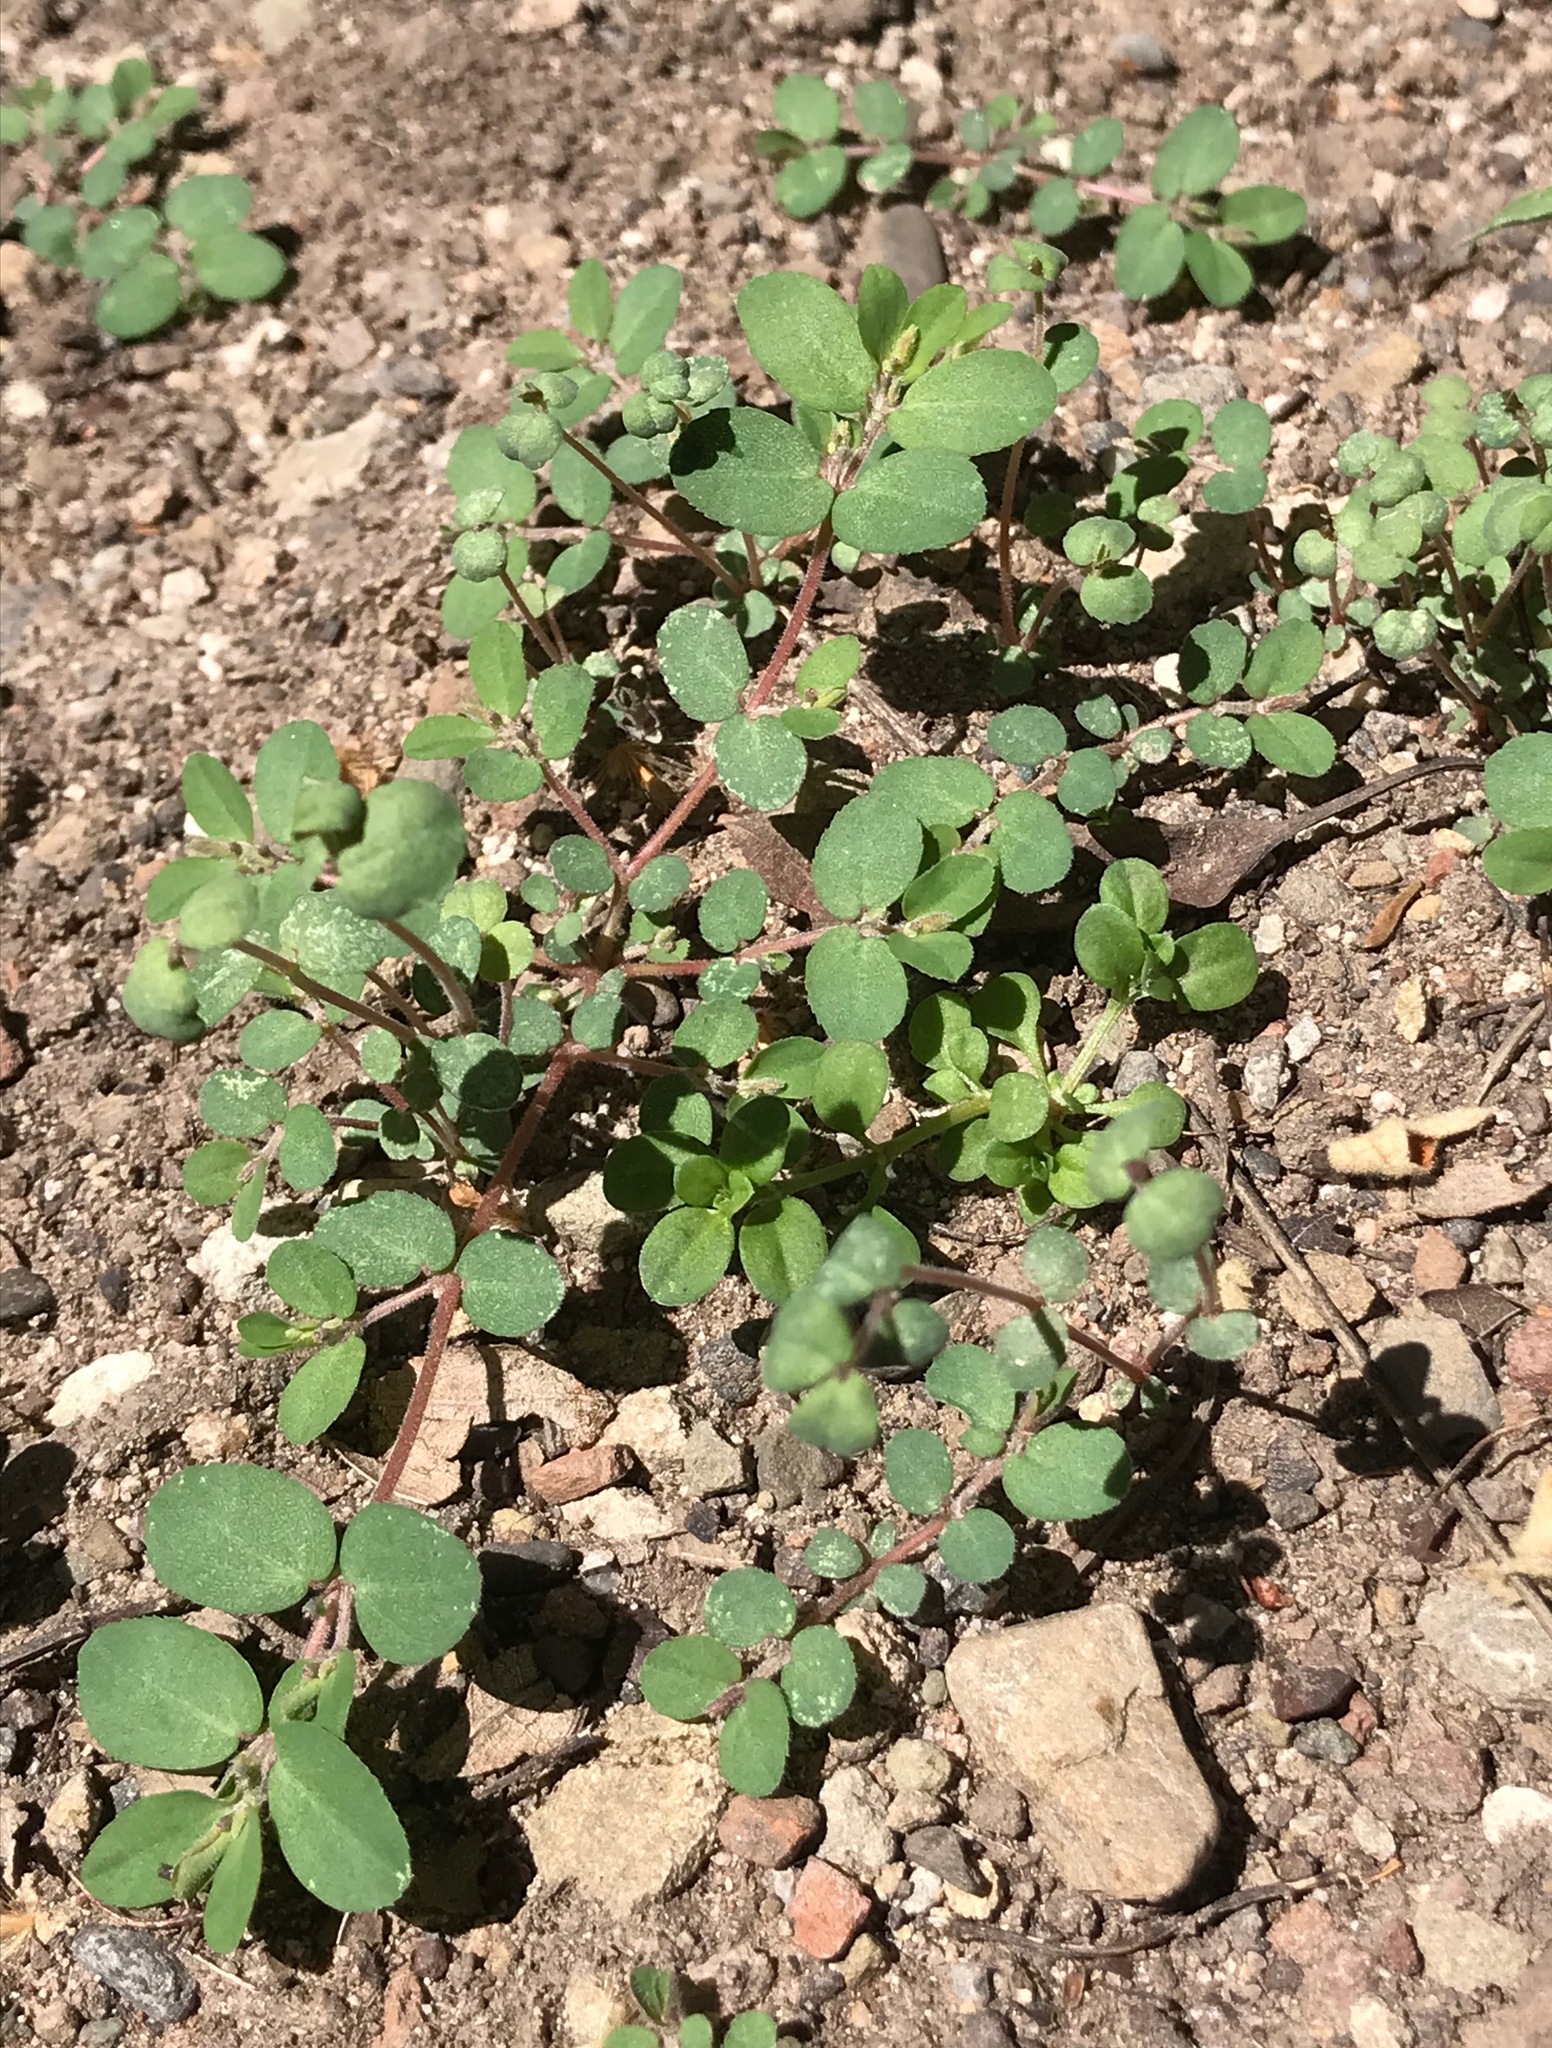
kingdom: Plantae
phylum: Tracheophyta
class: Magnoliopsida
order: Malpighiales
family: Euphorbiaceae
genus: Euphorbia
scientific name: Euphorbia prostrata
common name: Prostrate sandmat
